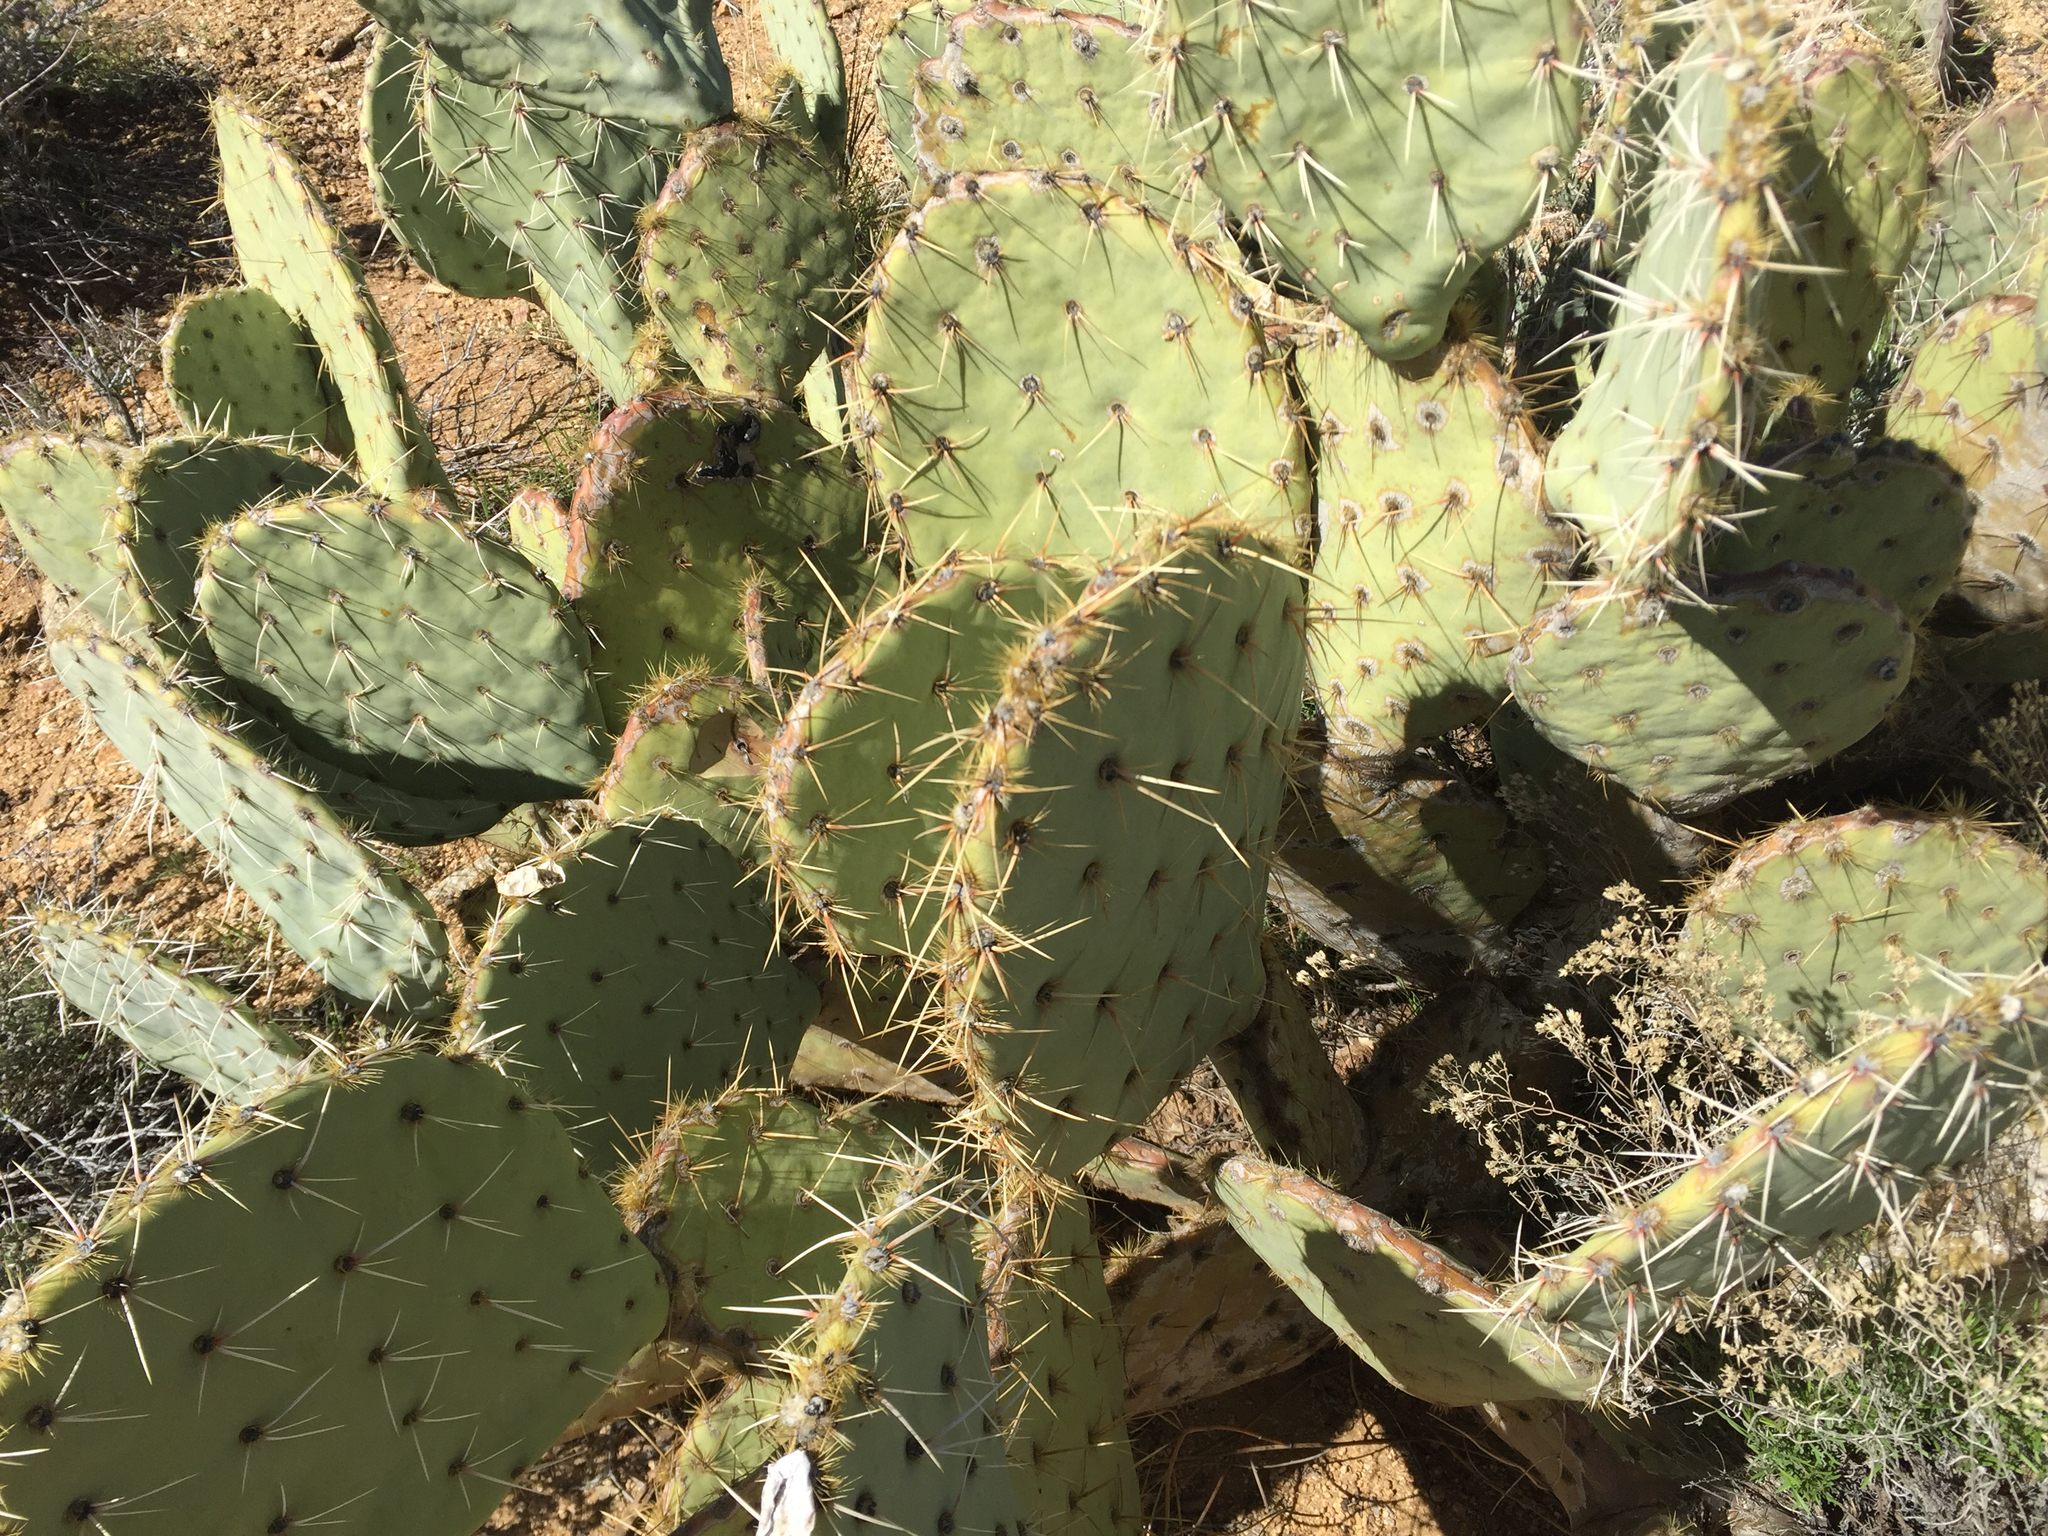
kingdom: Plantae
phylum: Tracheophyta
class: Magnoliopsida
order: Caryophyllales
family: Cactaceae
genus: Opuntia
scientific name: Opuntia engelmannii
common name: Cactus-apple
